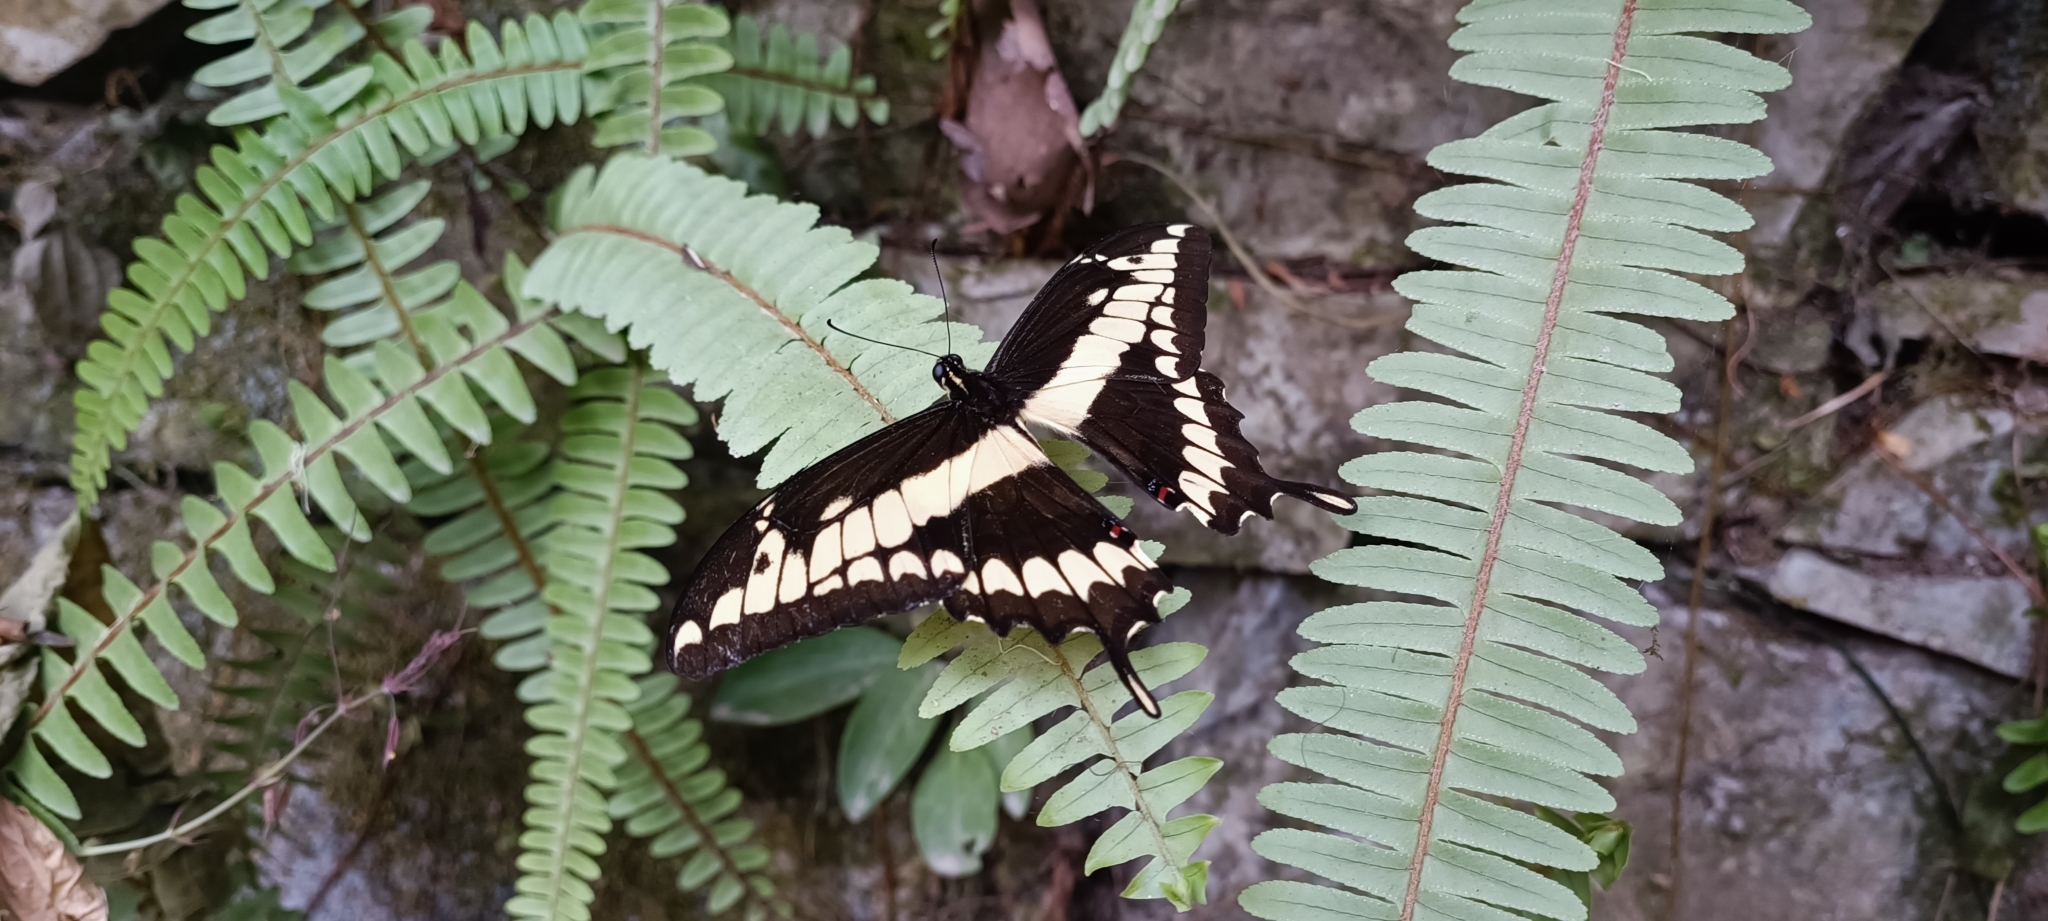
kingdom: Animalia
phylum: Arthropoda
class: Insecta
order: Lepidoptera
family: Papilionidae
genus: Papilio
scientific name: Papilio thoas
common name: King swallowtail
